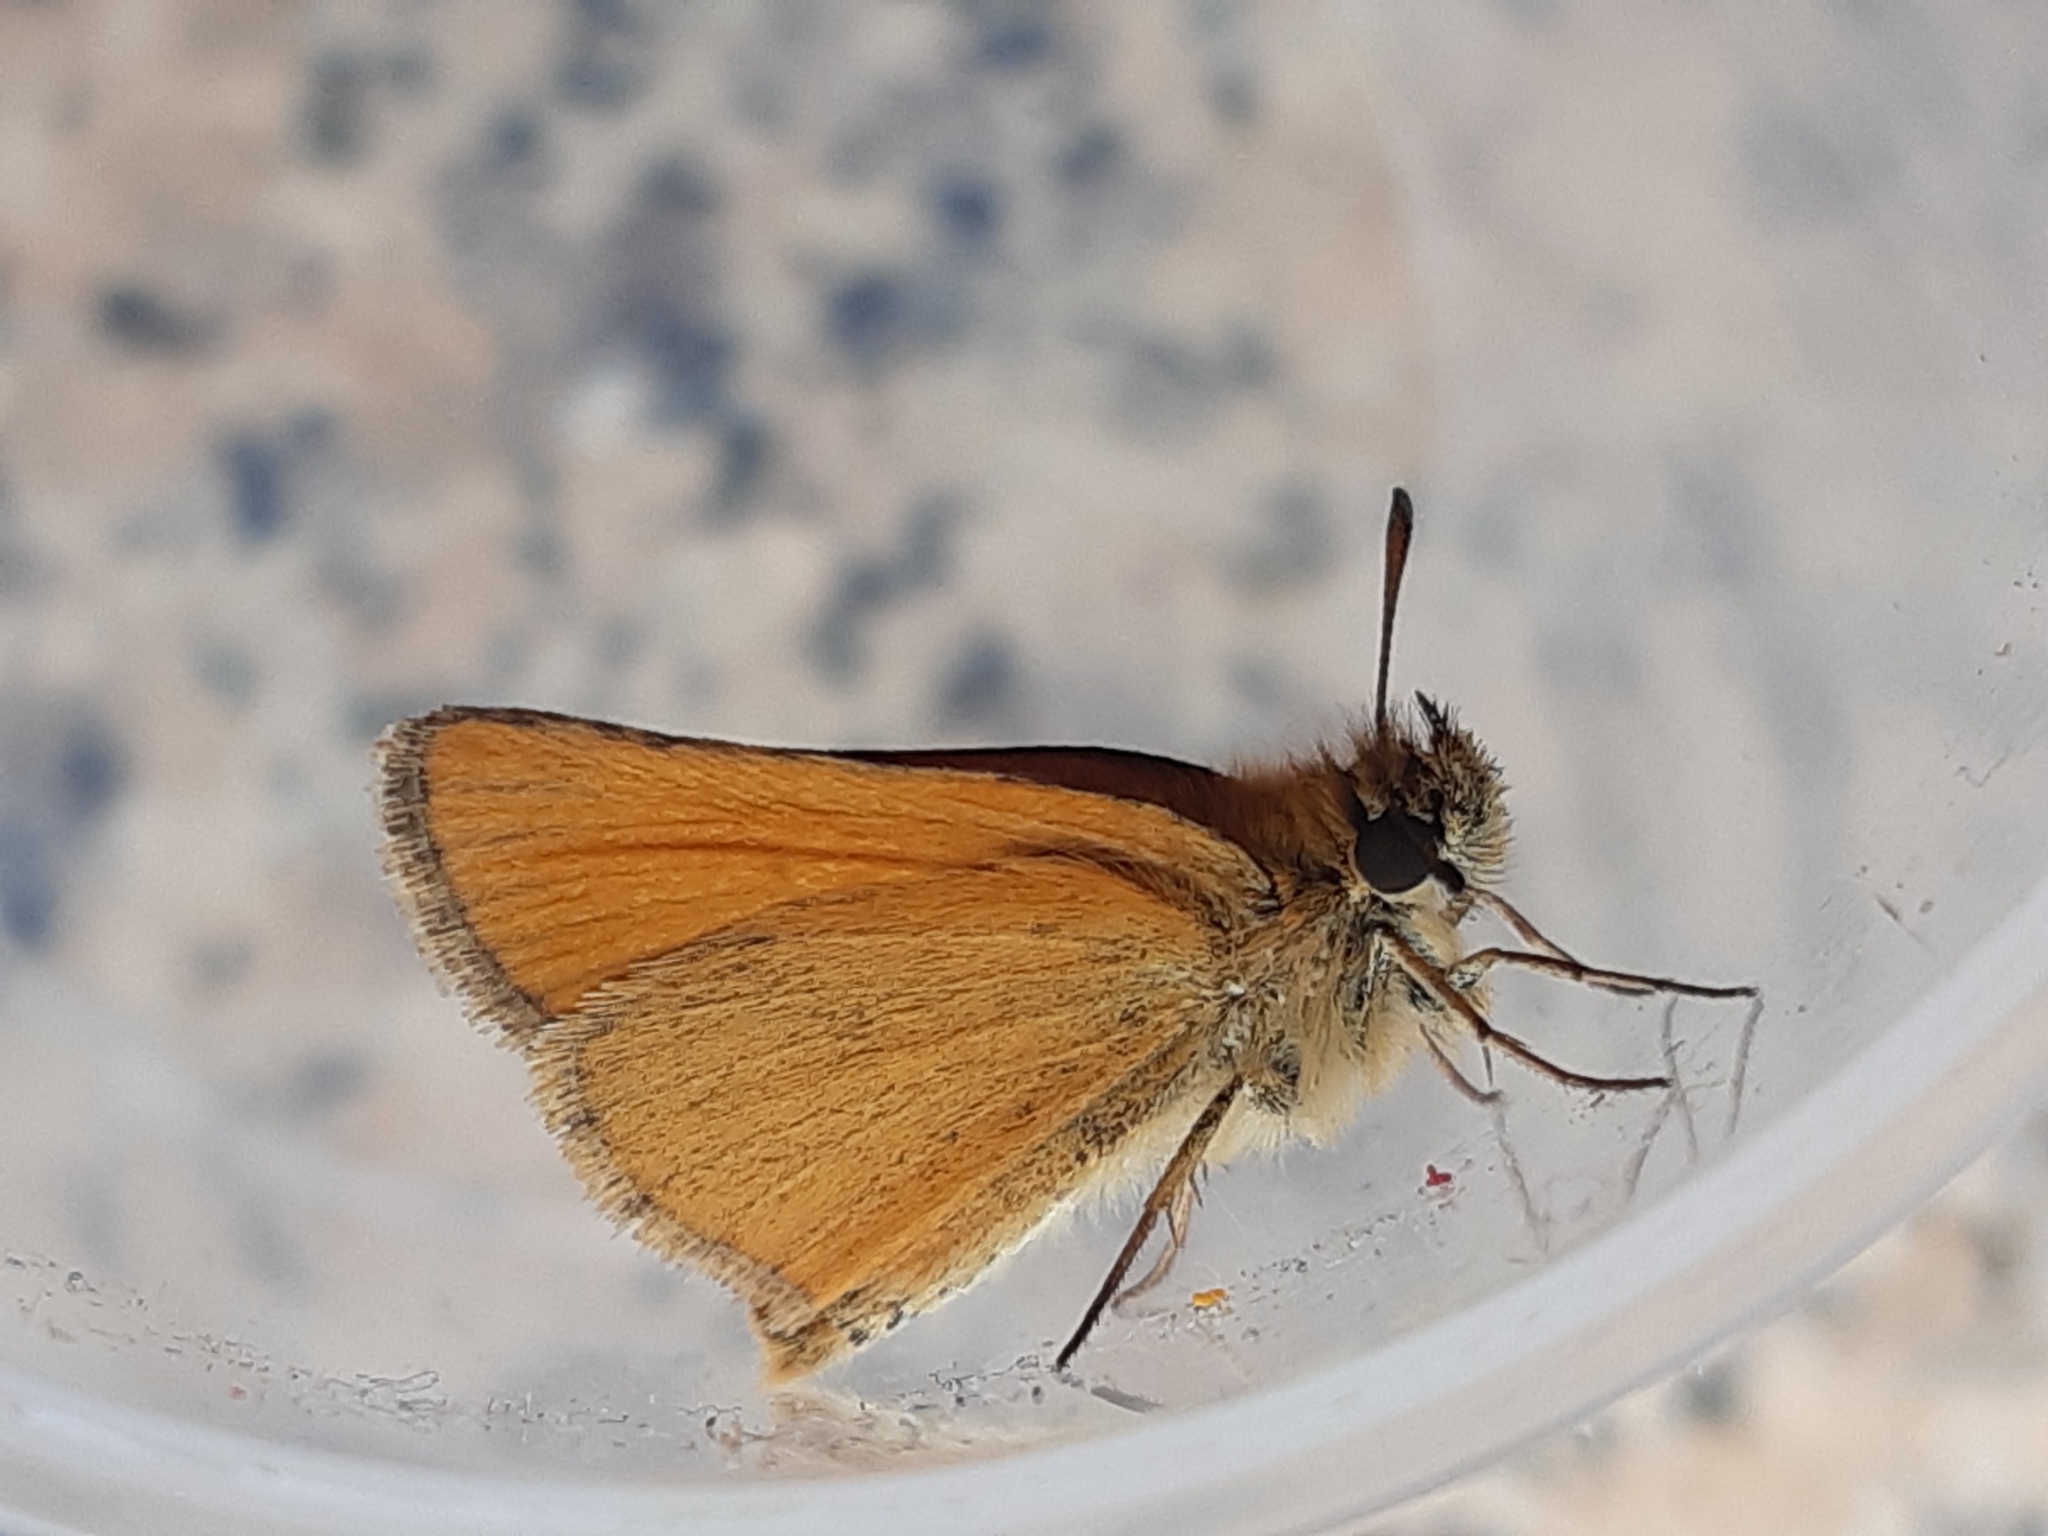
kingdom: Animalia
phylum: Arthropoda
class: Insecta
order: Lepidoptera
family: Hesperiidae
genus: Thymelicus
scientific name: Thymelicus lineola
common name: Essex skipper
